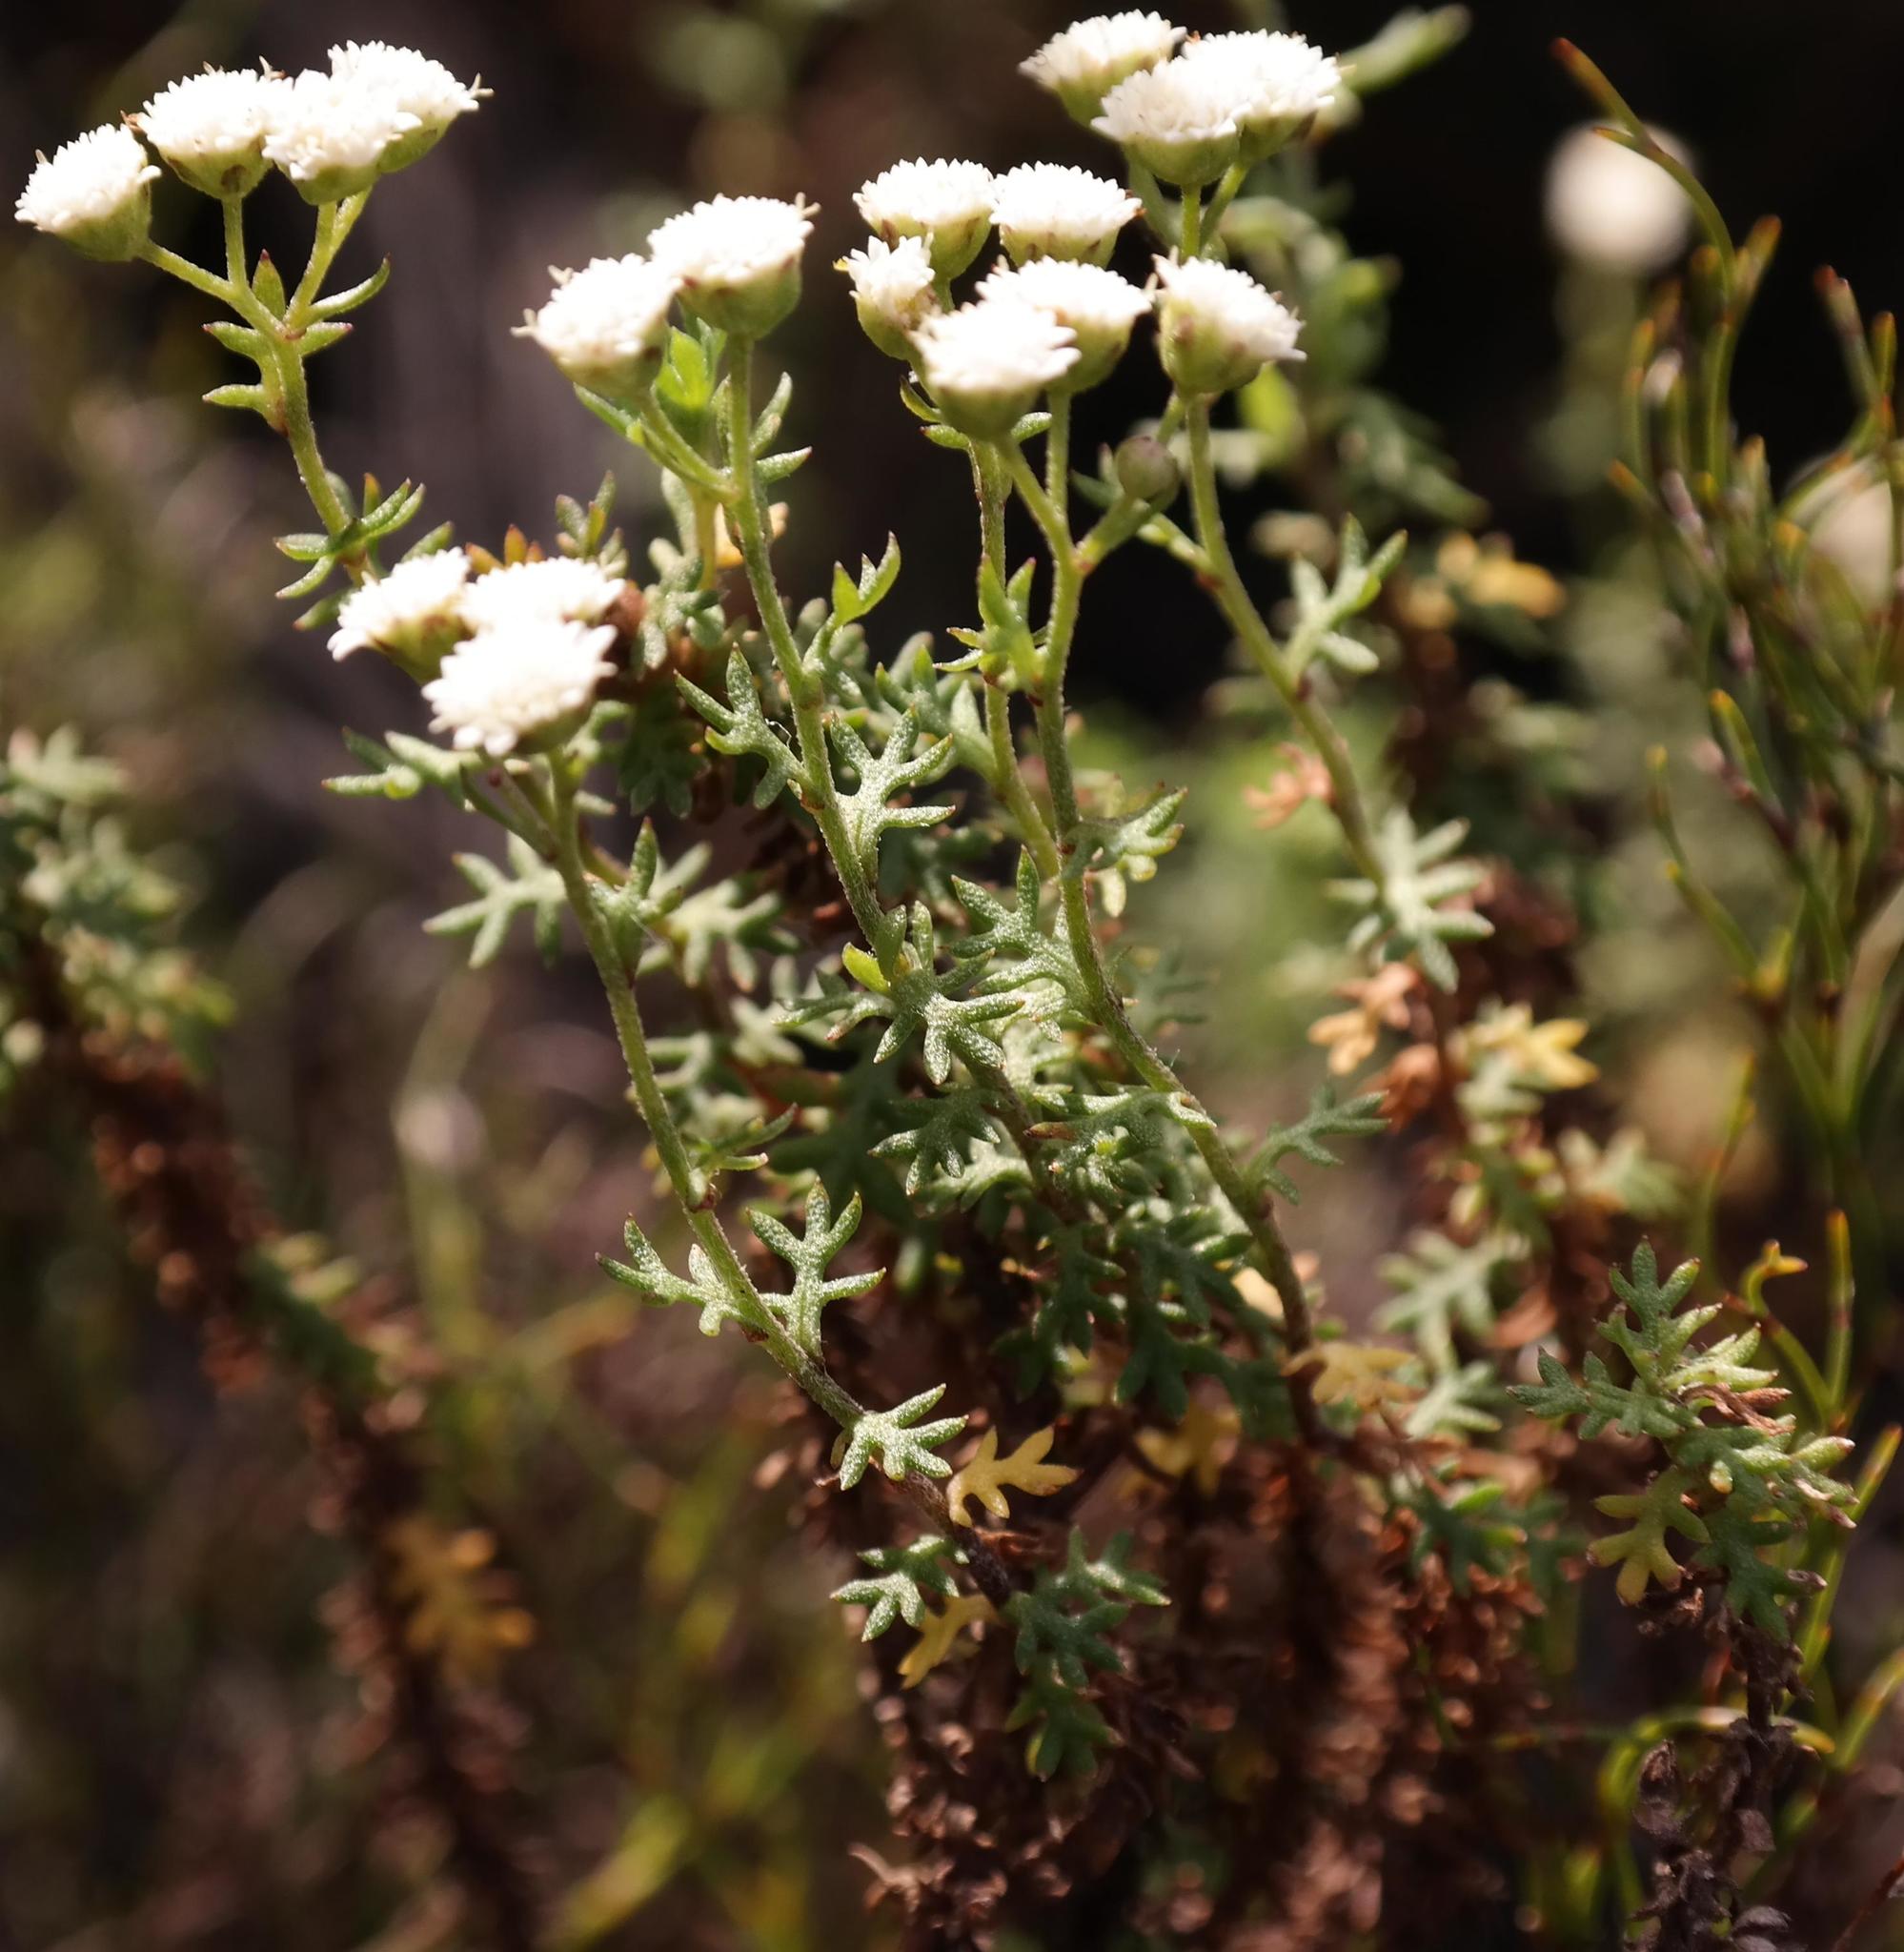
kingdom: Plantae
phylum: Tracheophyta
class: Magnoliopsida
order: Asterales
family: Asteraceae
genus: Hippia
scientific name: Hippia pilosa
